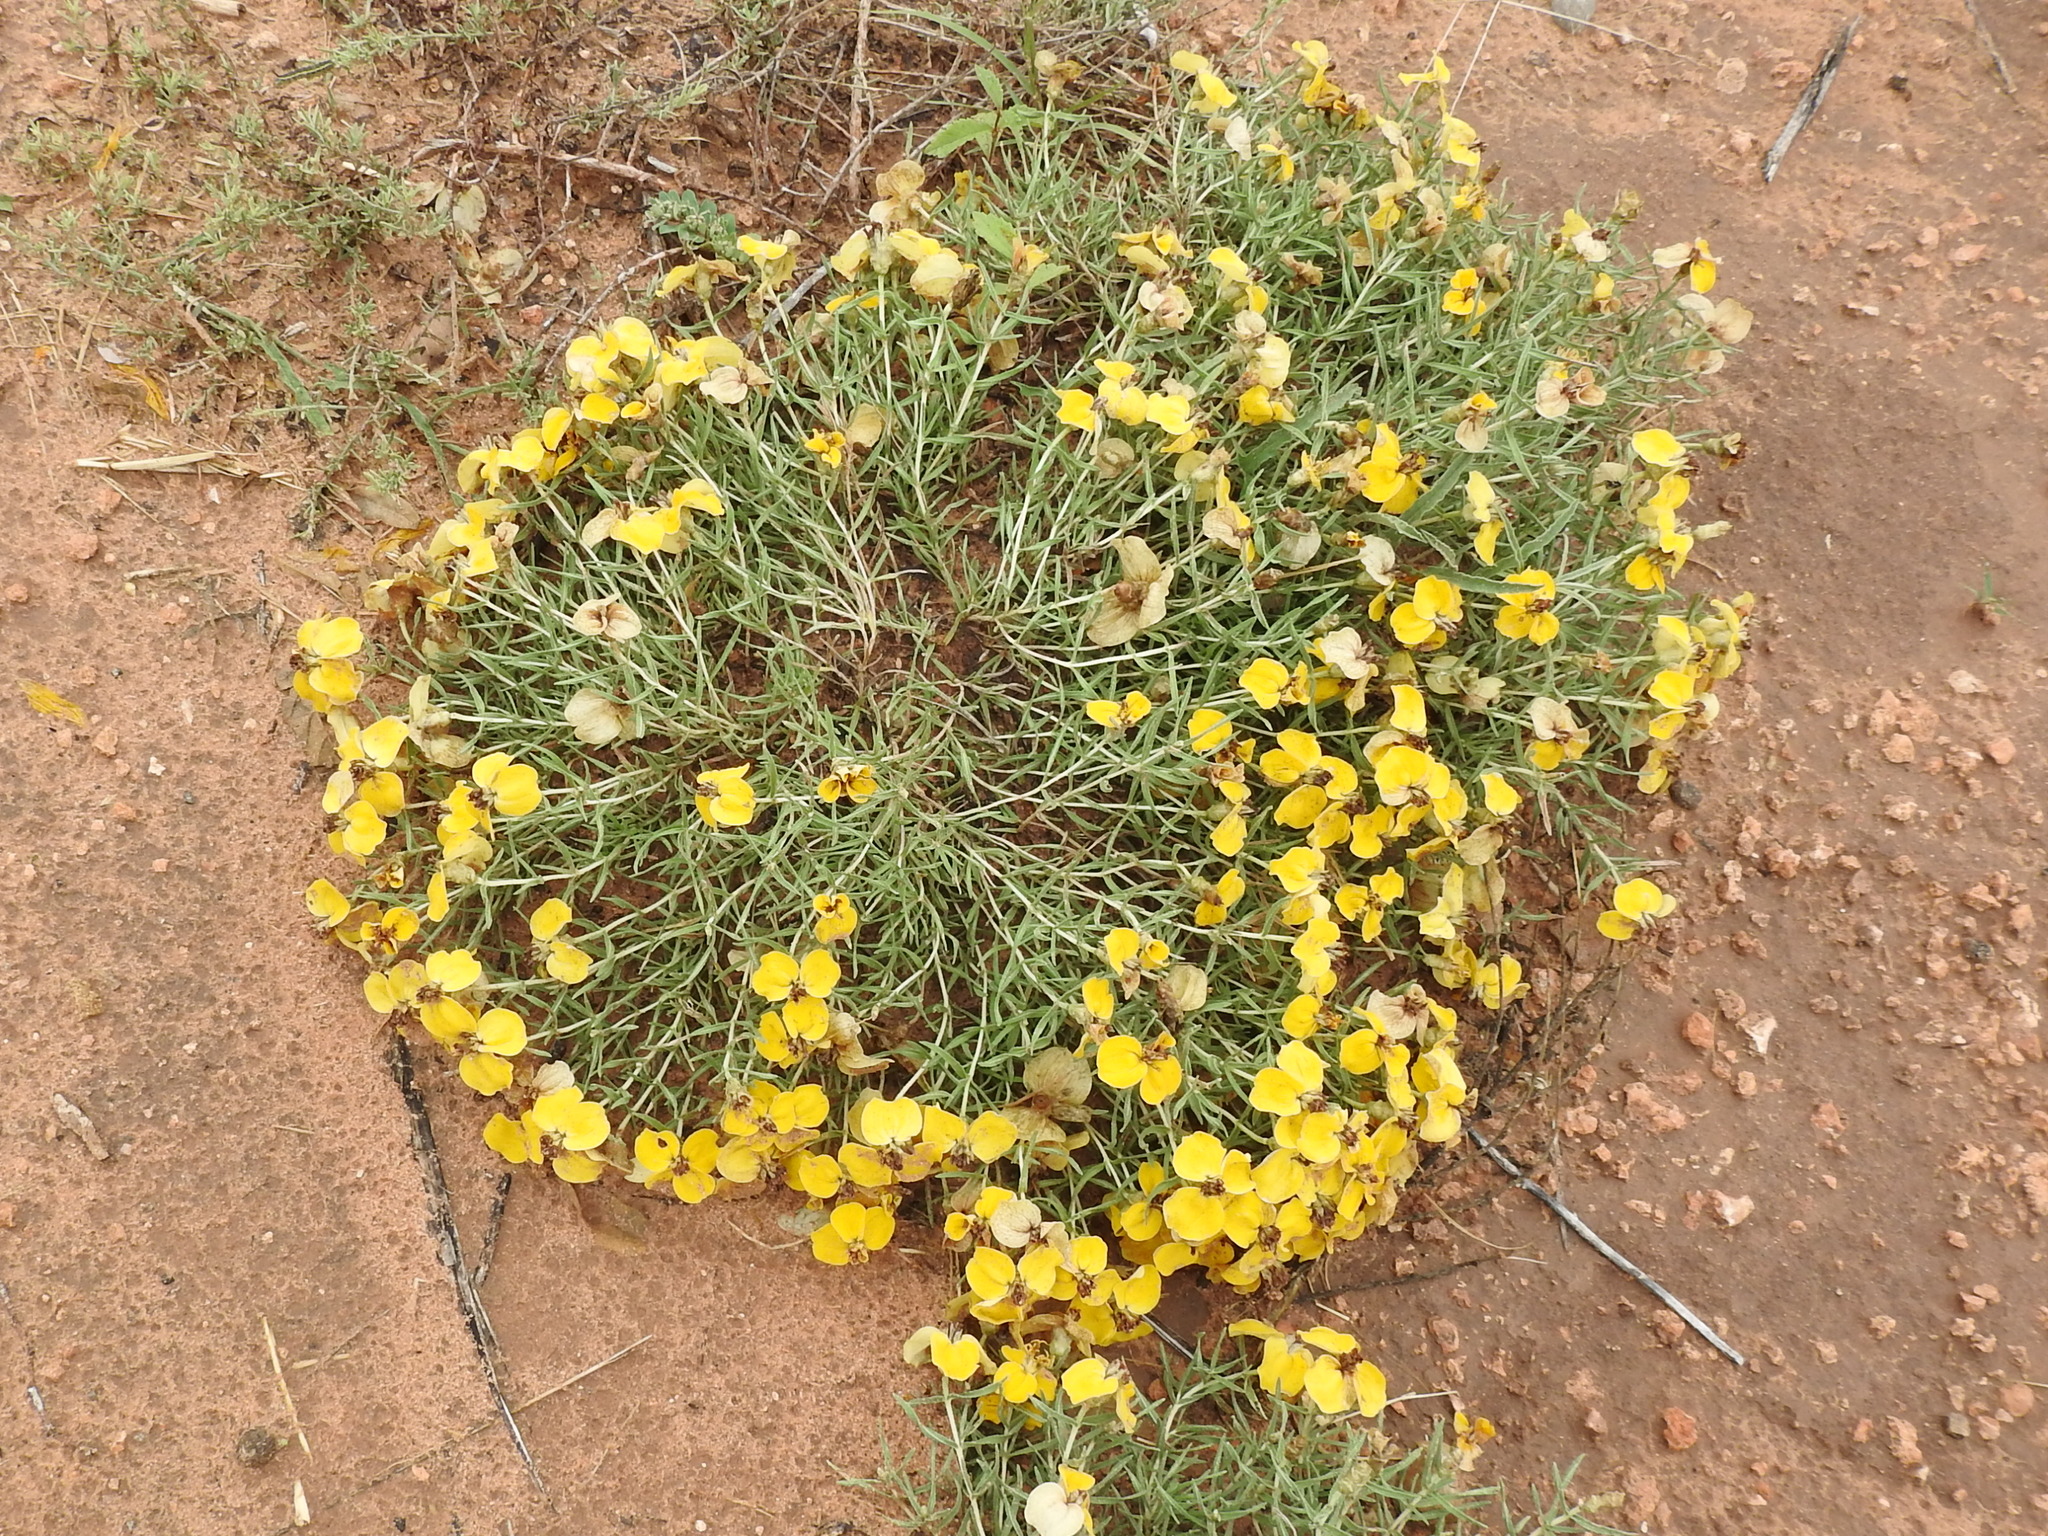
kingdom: Plantae
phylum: Tracheophyta
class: Magnoliopsida
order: Asterales
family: Asteraceae
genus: Zinnia
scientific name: Zinnia grandiflora
